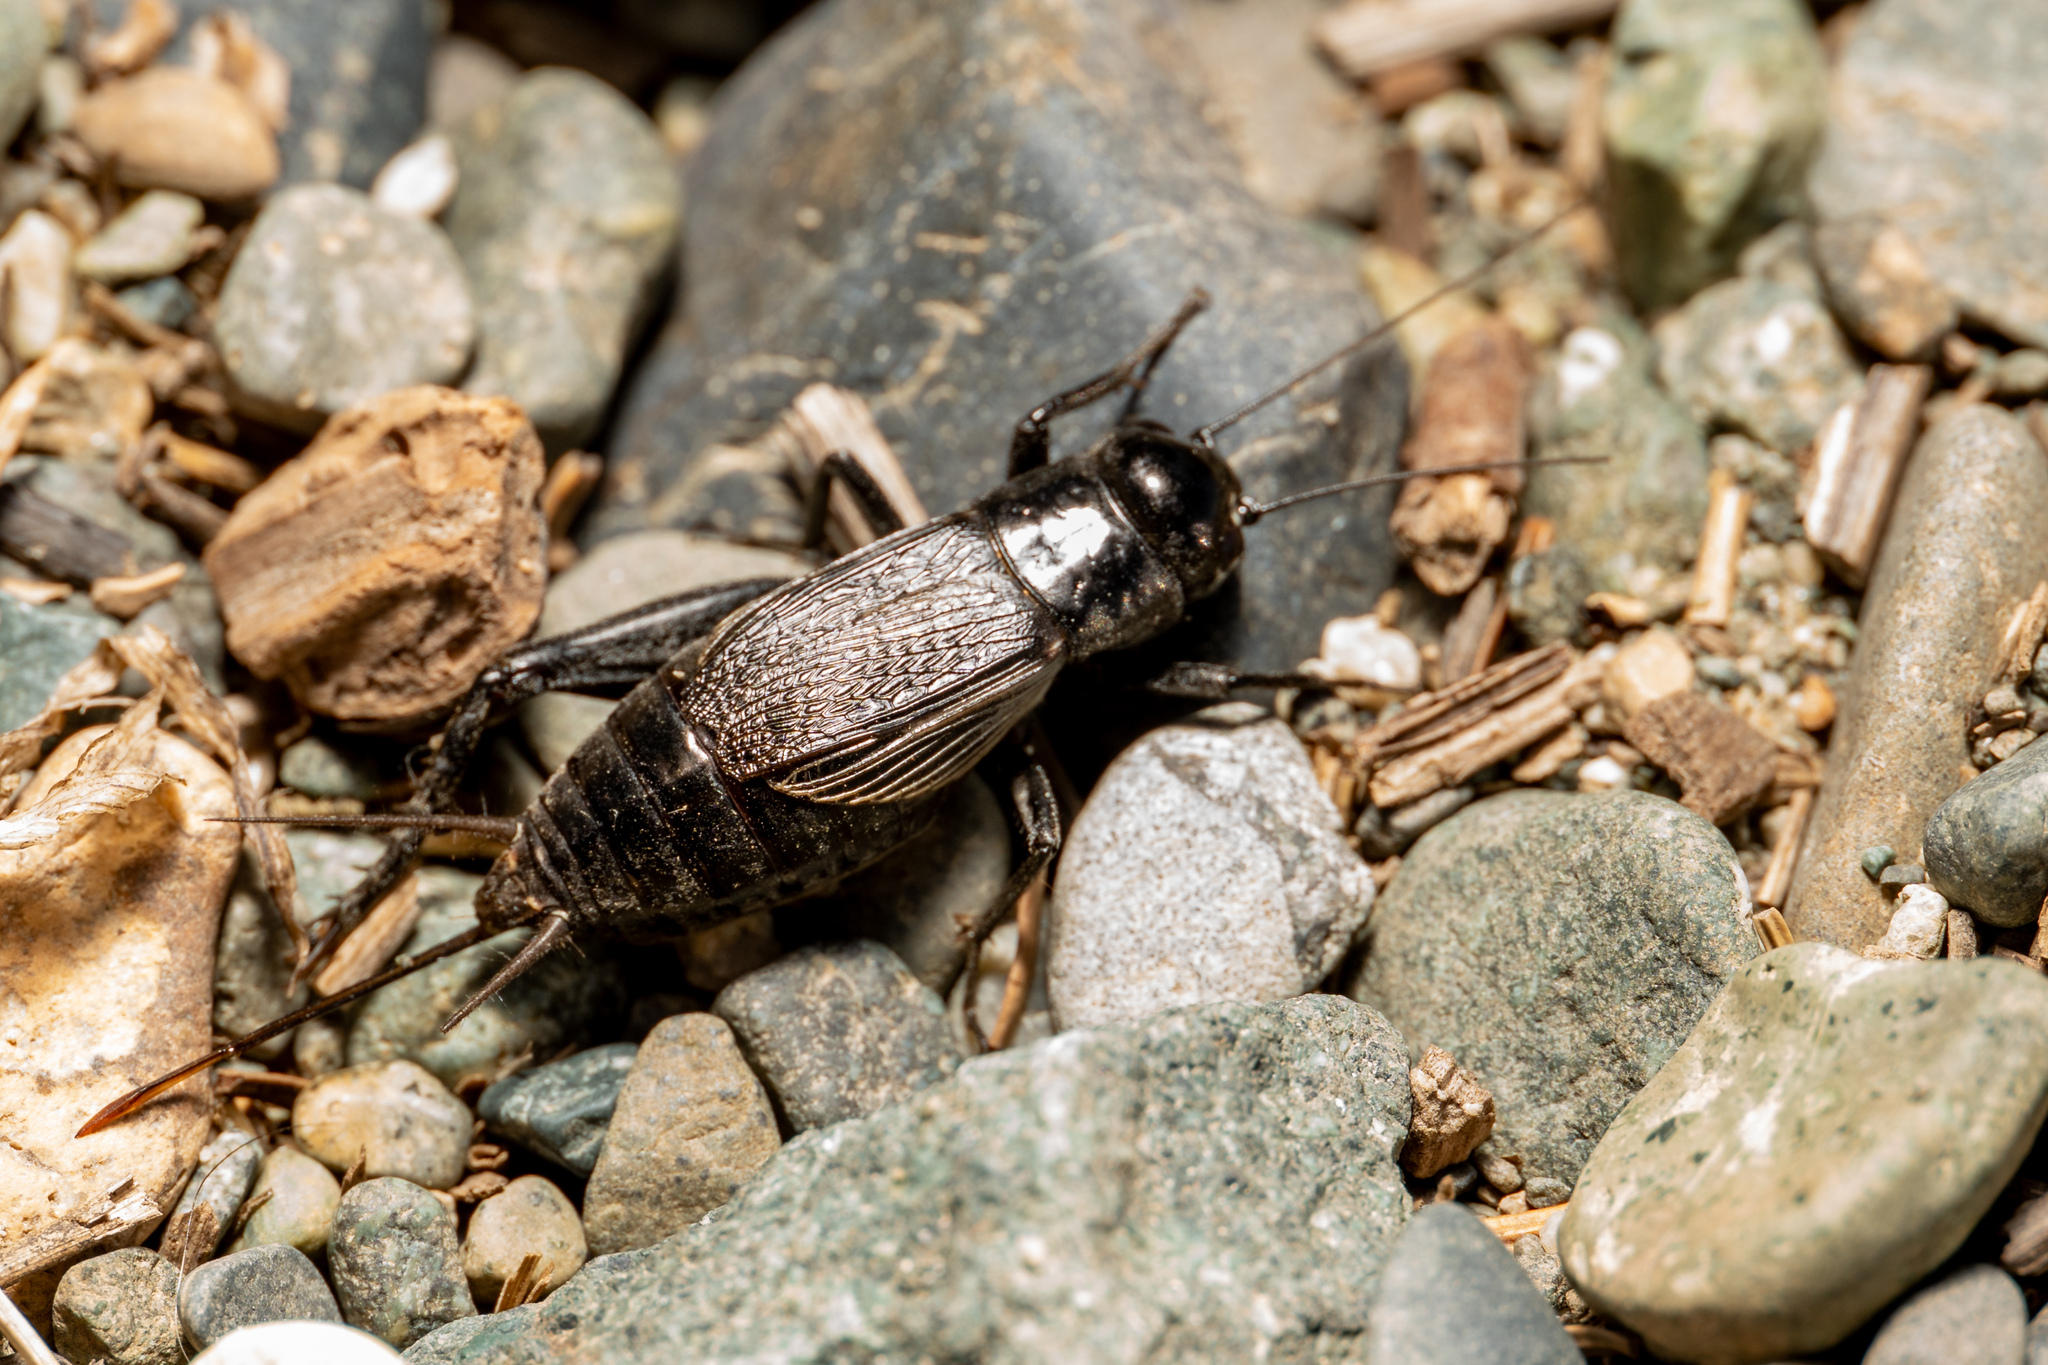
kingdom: Animalia
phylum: Arthropoda
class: Insecta
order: Orthoptera
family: Gryllidae
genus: Gryllus
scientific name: Gryllus pennsylvanicus
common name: Fall field cricket
